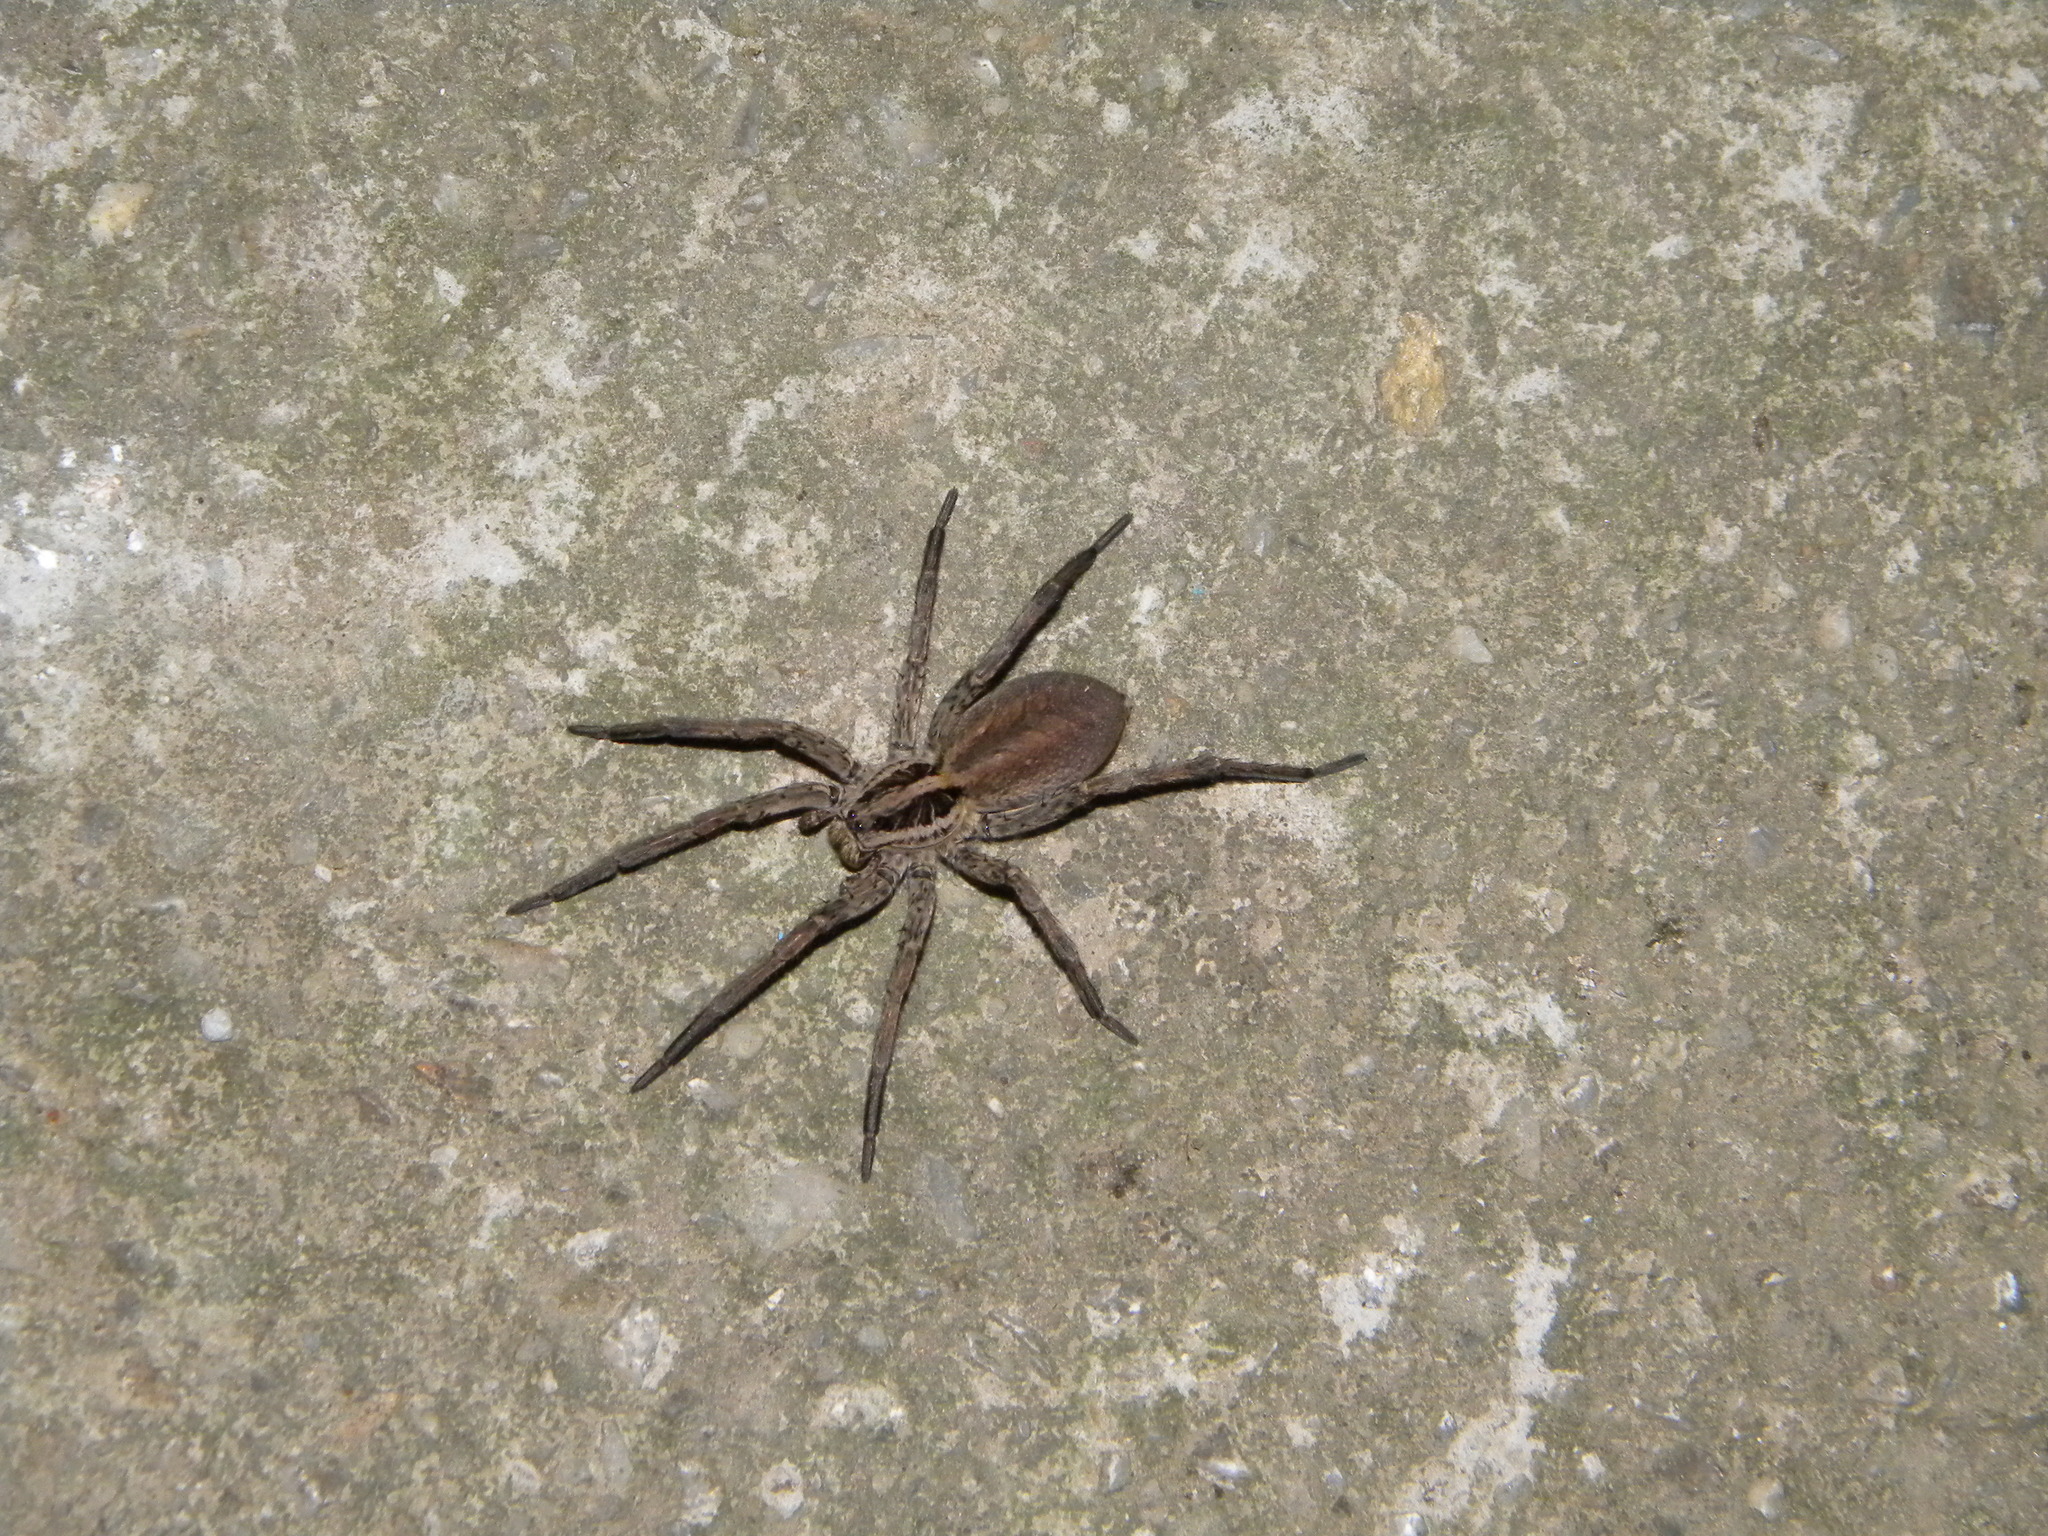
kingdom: Animalia
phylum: Arthropoda
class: Arachnida
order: Araneae
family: Lycosidae
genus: Hogna
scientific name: Hogna radiata
